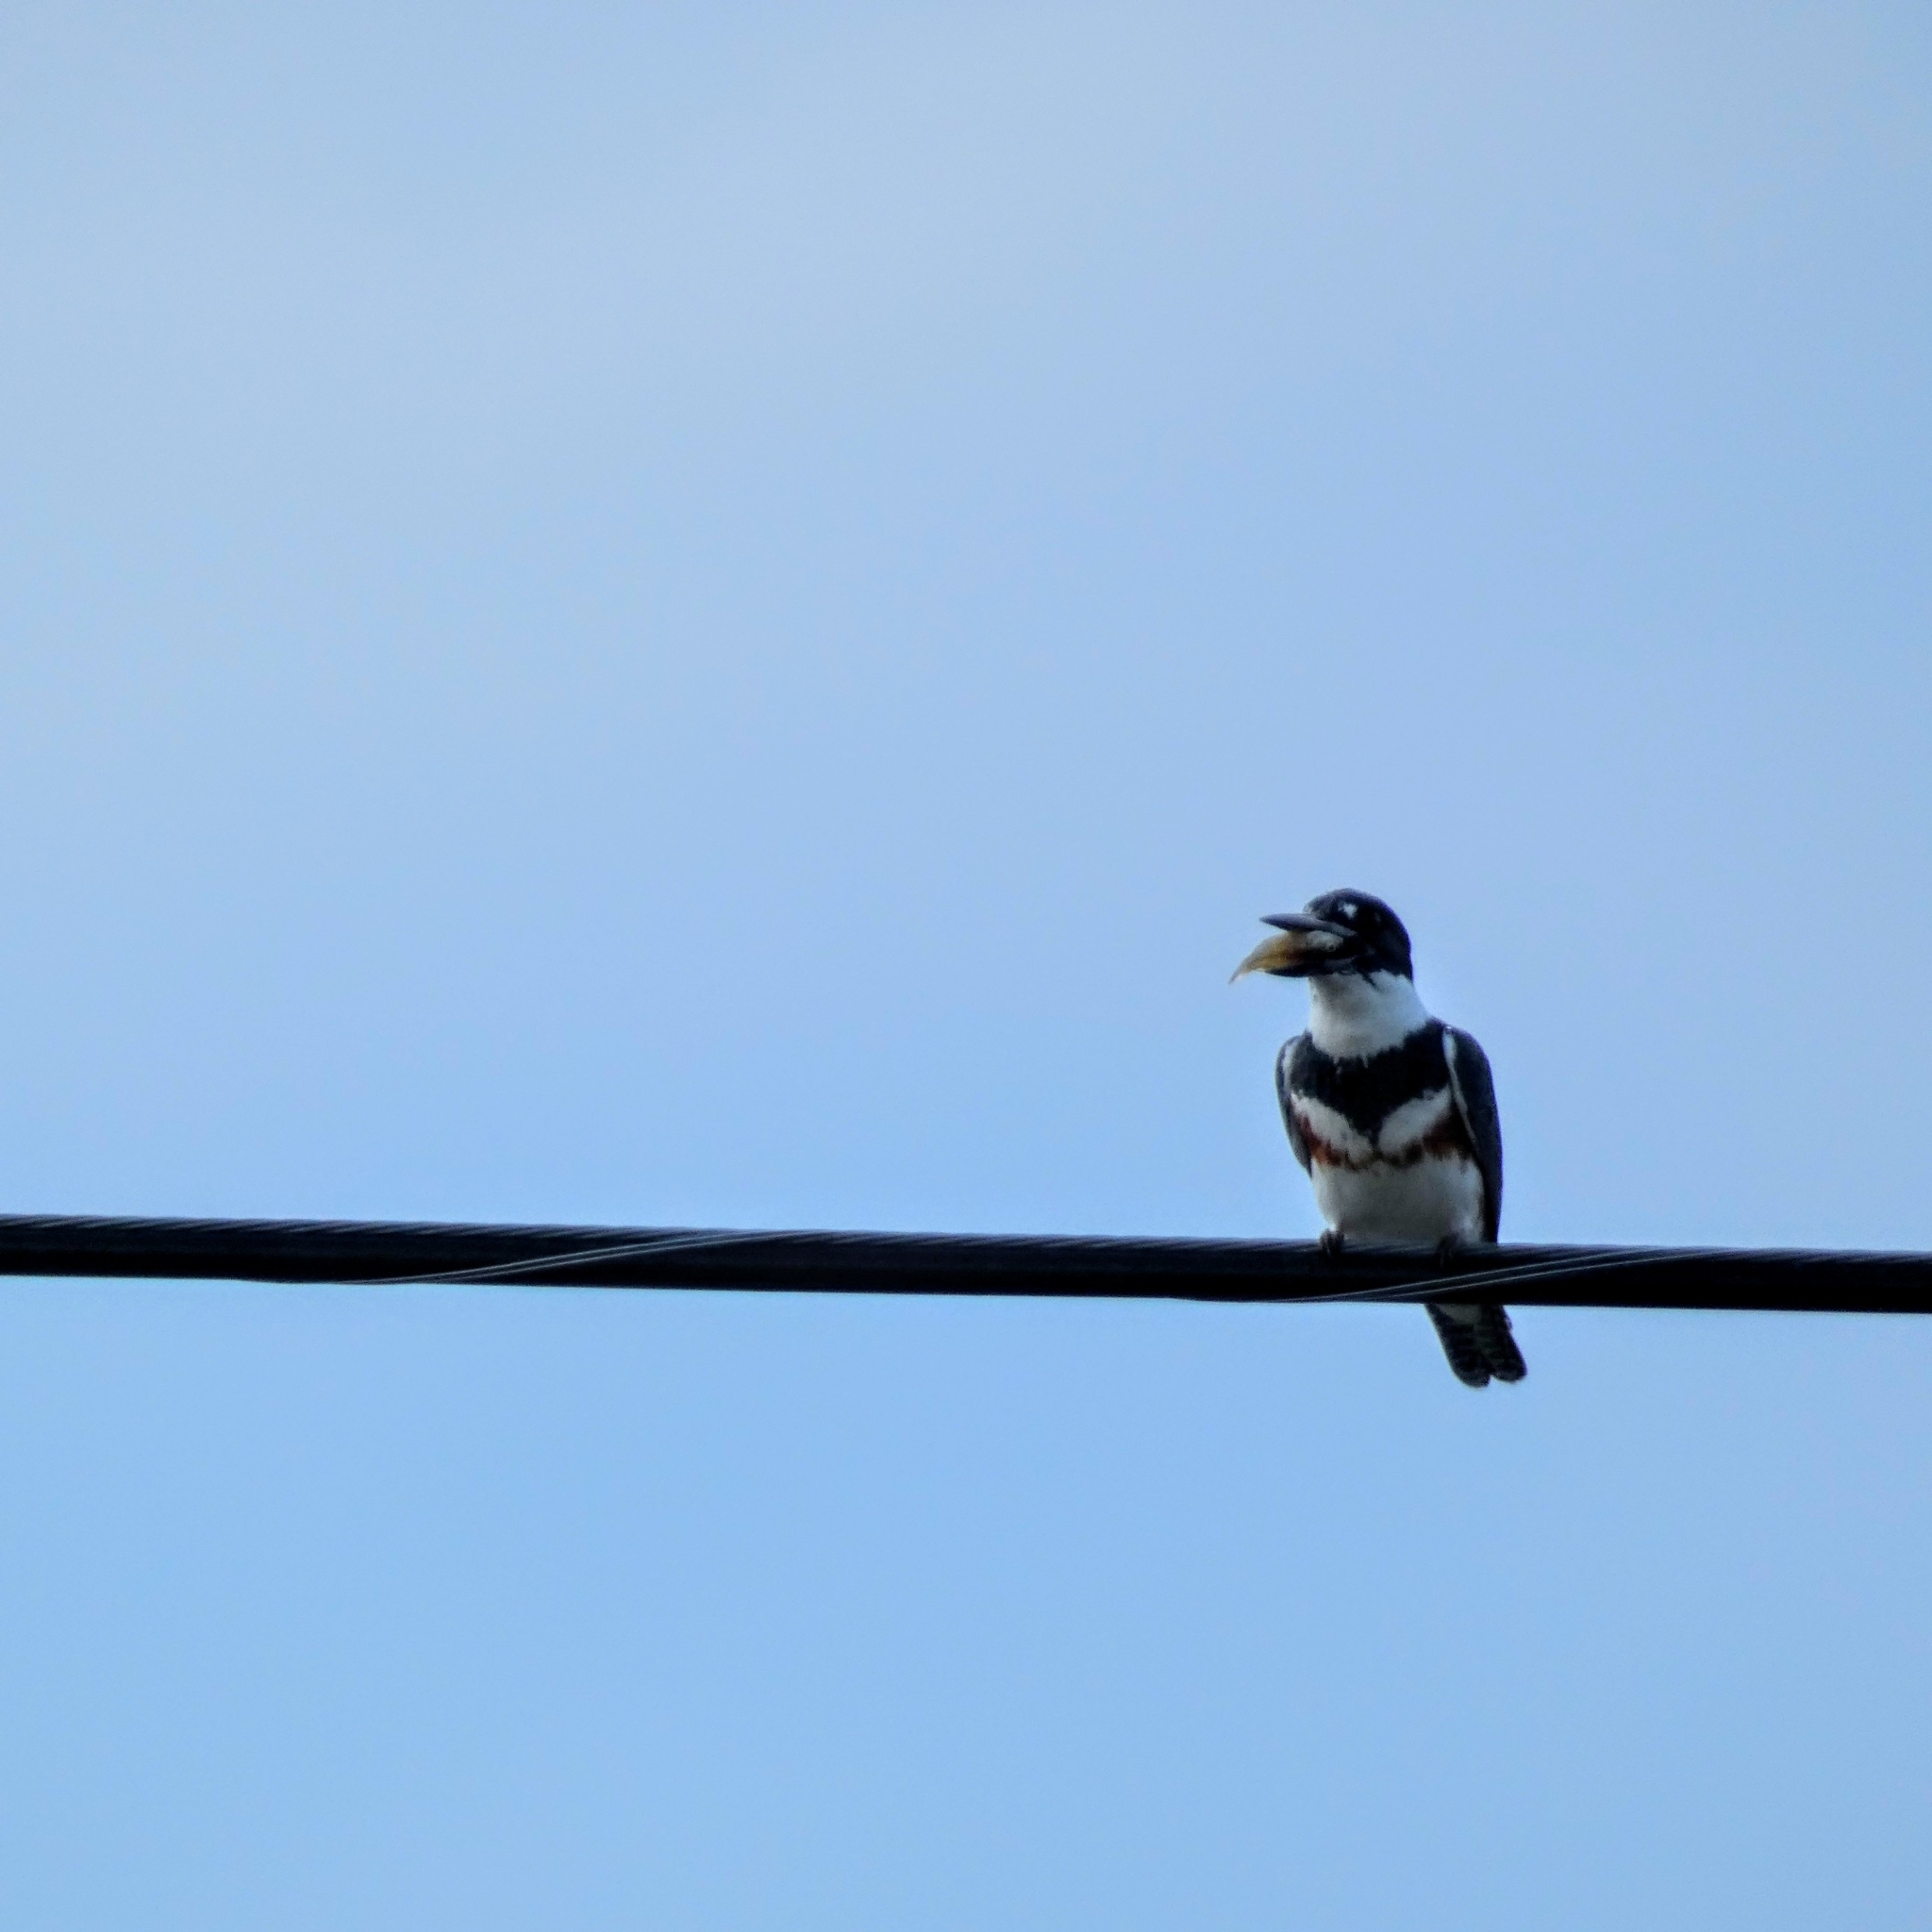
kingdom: Animalia
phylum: Chordata
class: Aves
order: Coraciiformes
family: Alcedinidae
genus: Megaceryle
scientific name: Megaceryle alcyon
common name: Belted kingfisher
